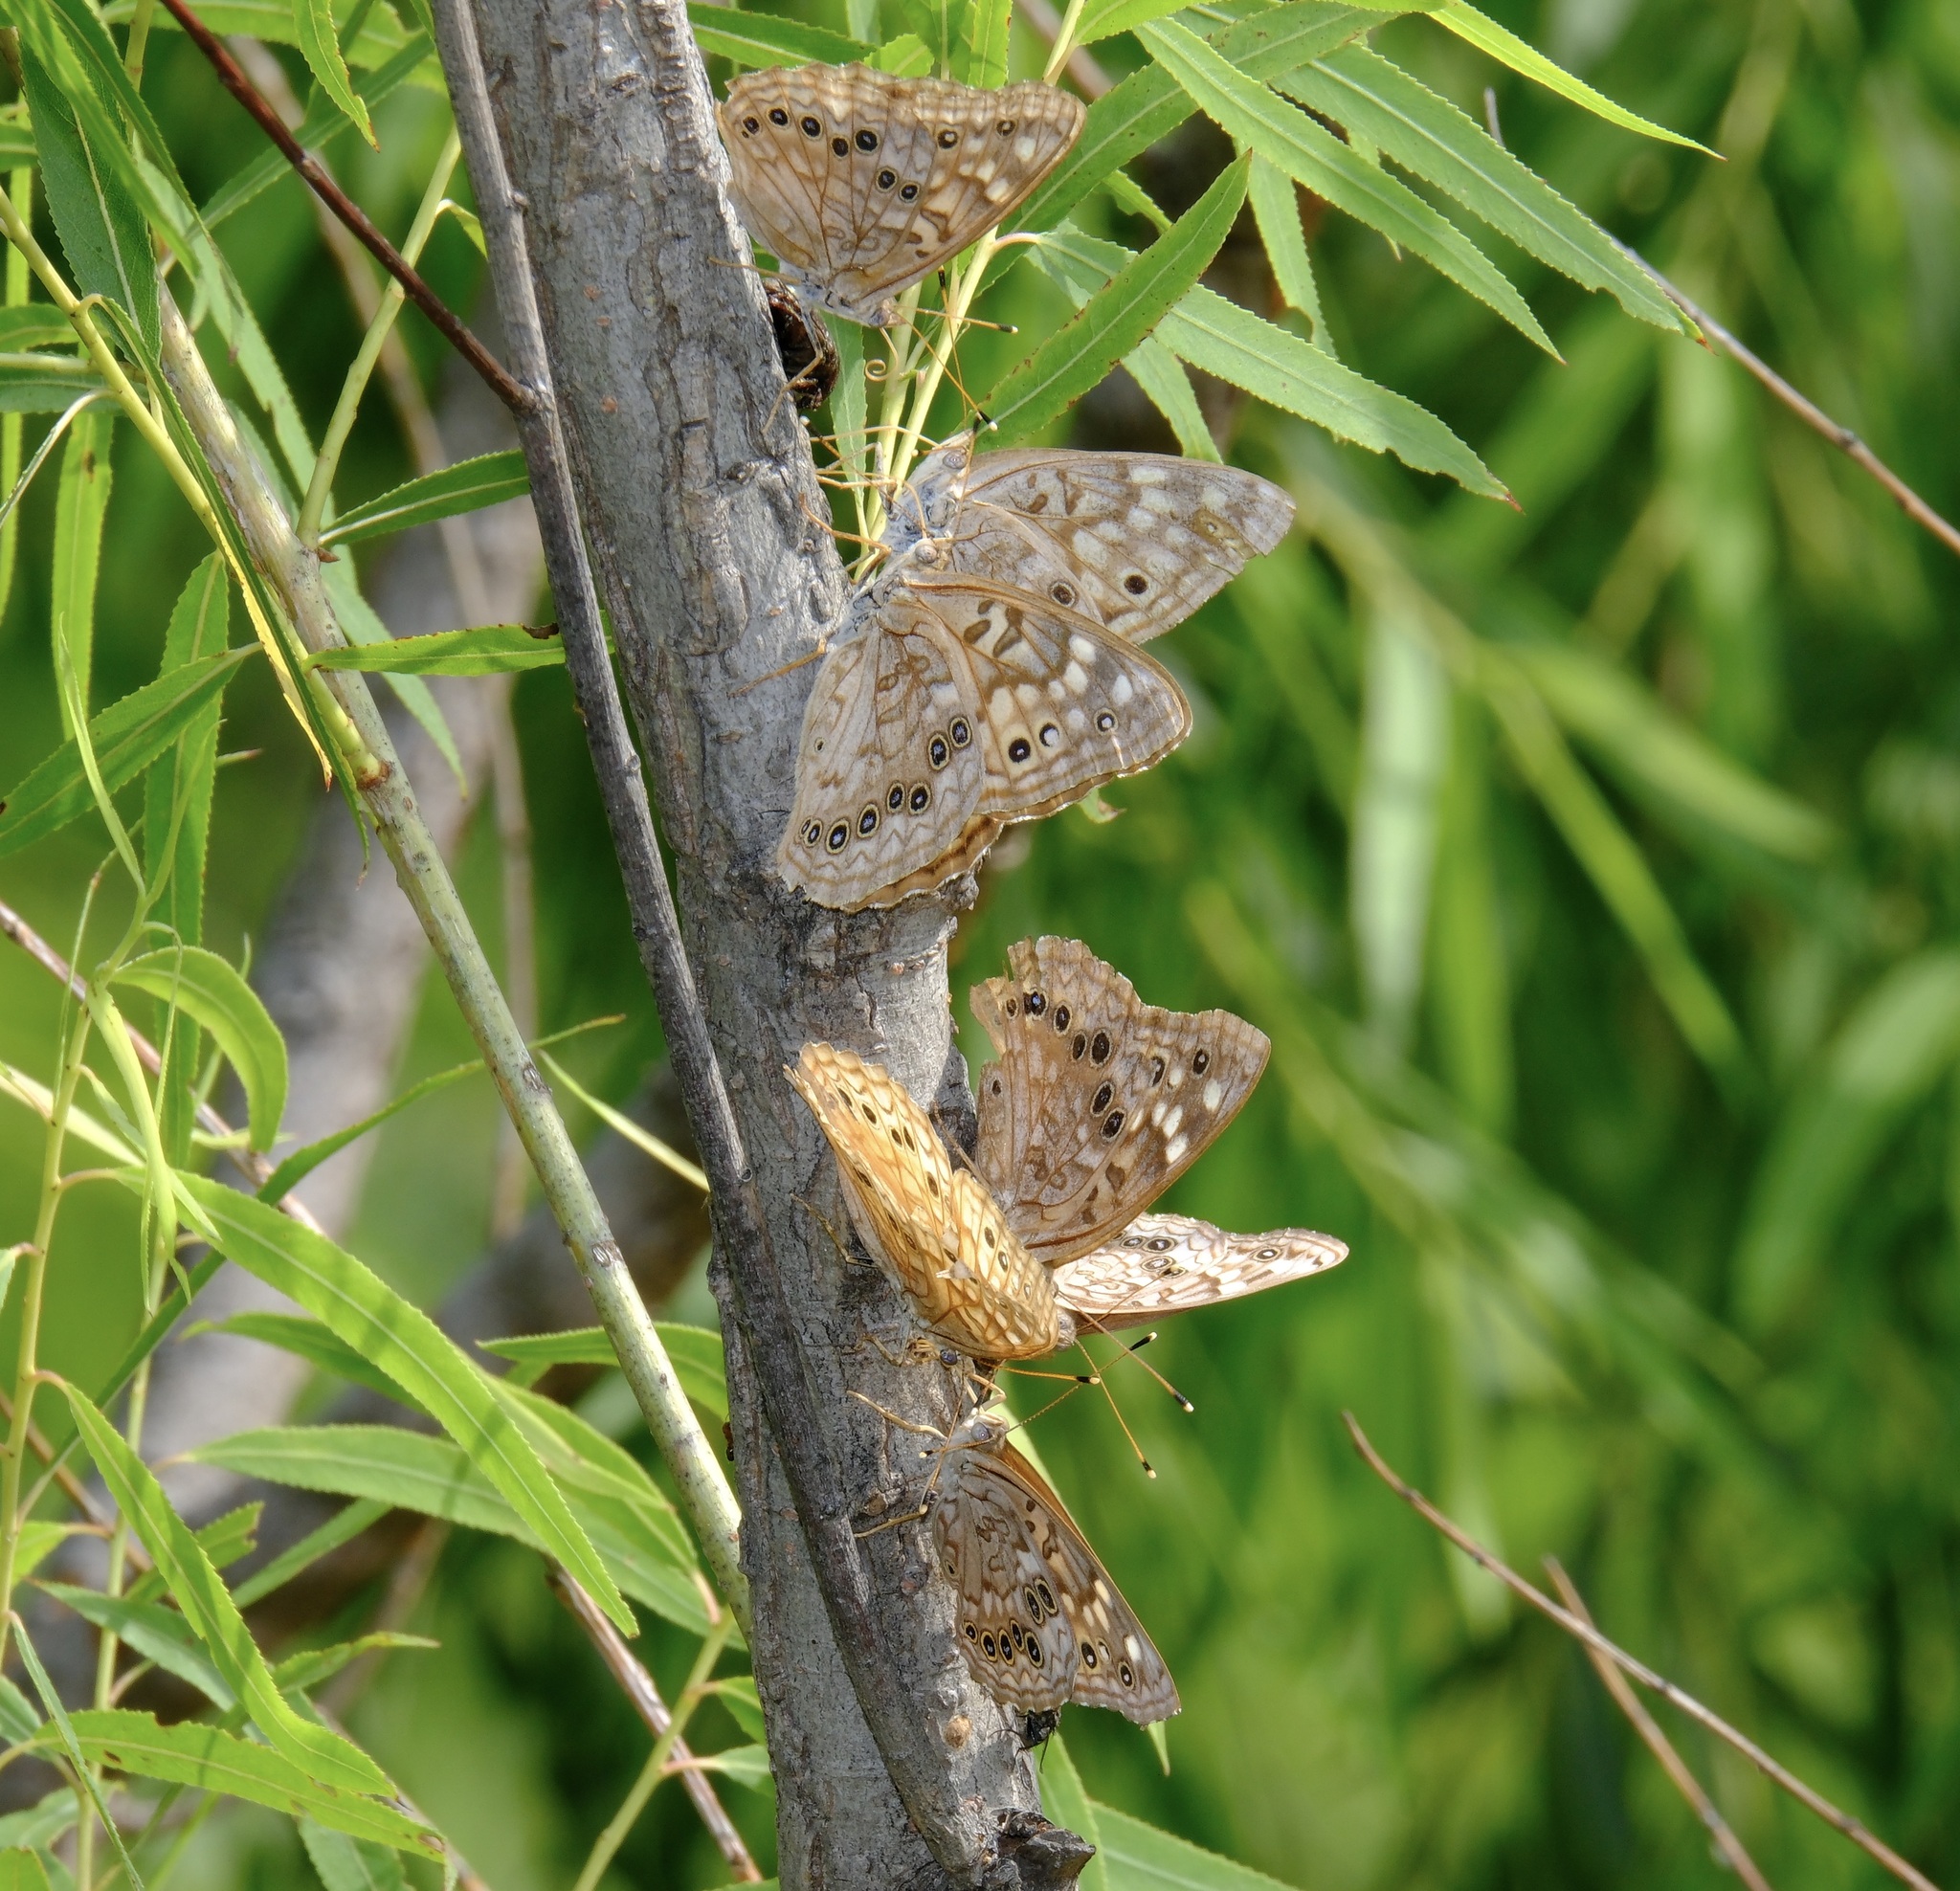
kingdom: Animalia
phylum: Arthropoda
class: Insecta
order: Lepidoptera
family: Nymphalidae
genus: Asterocampa
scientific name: Asterocampa celtis
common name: Hackberry emperor
